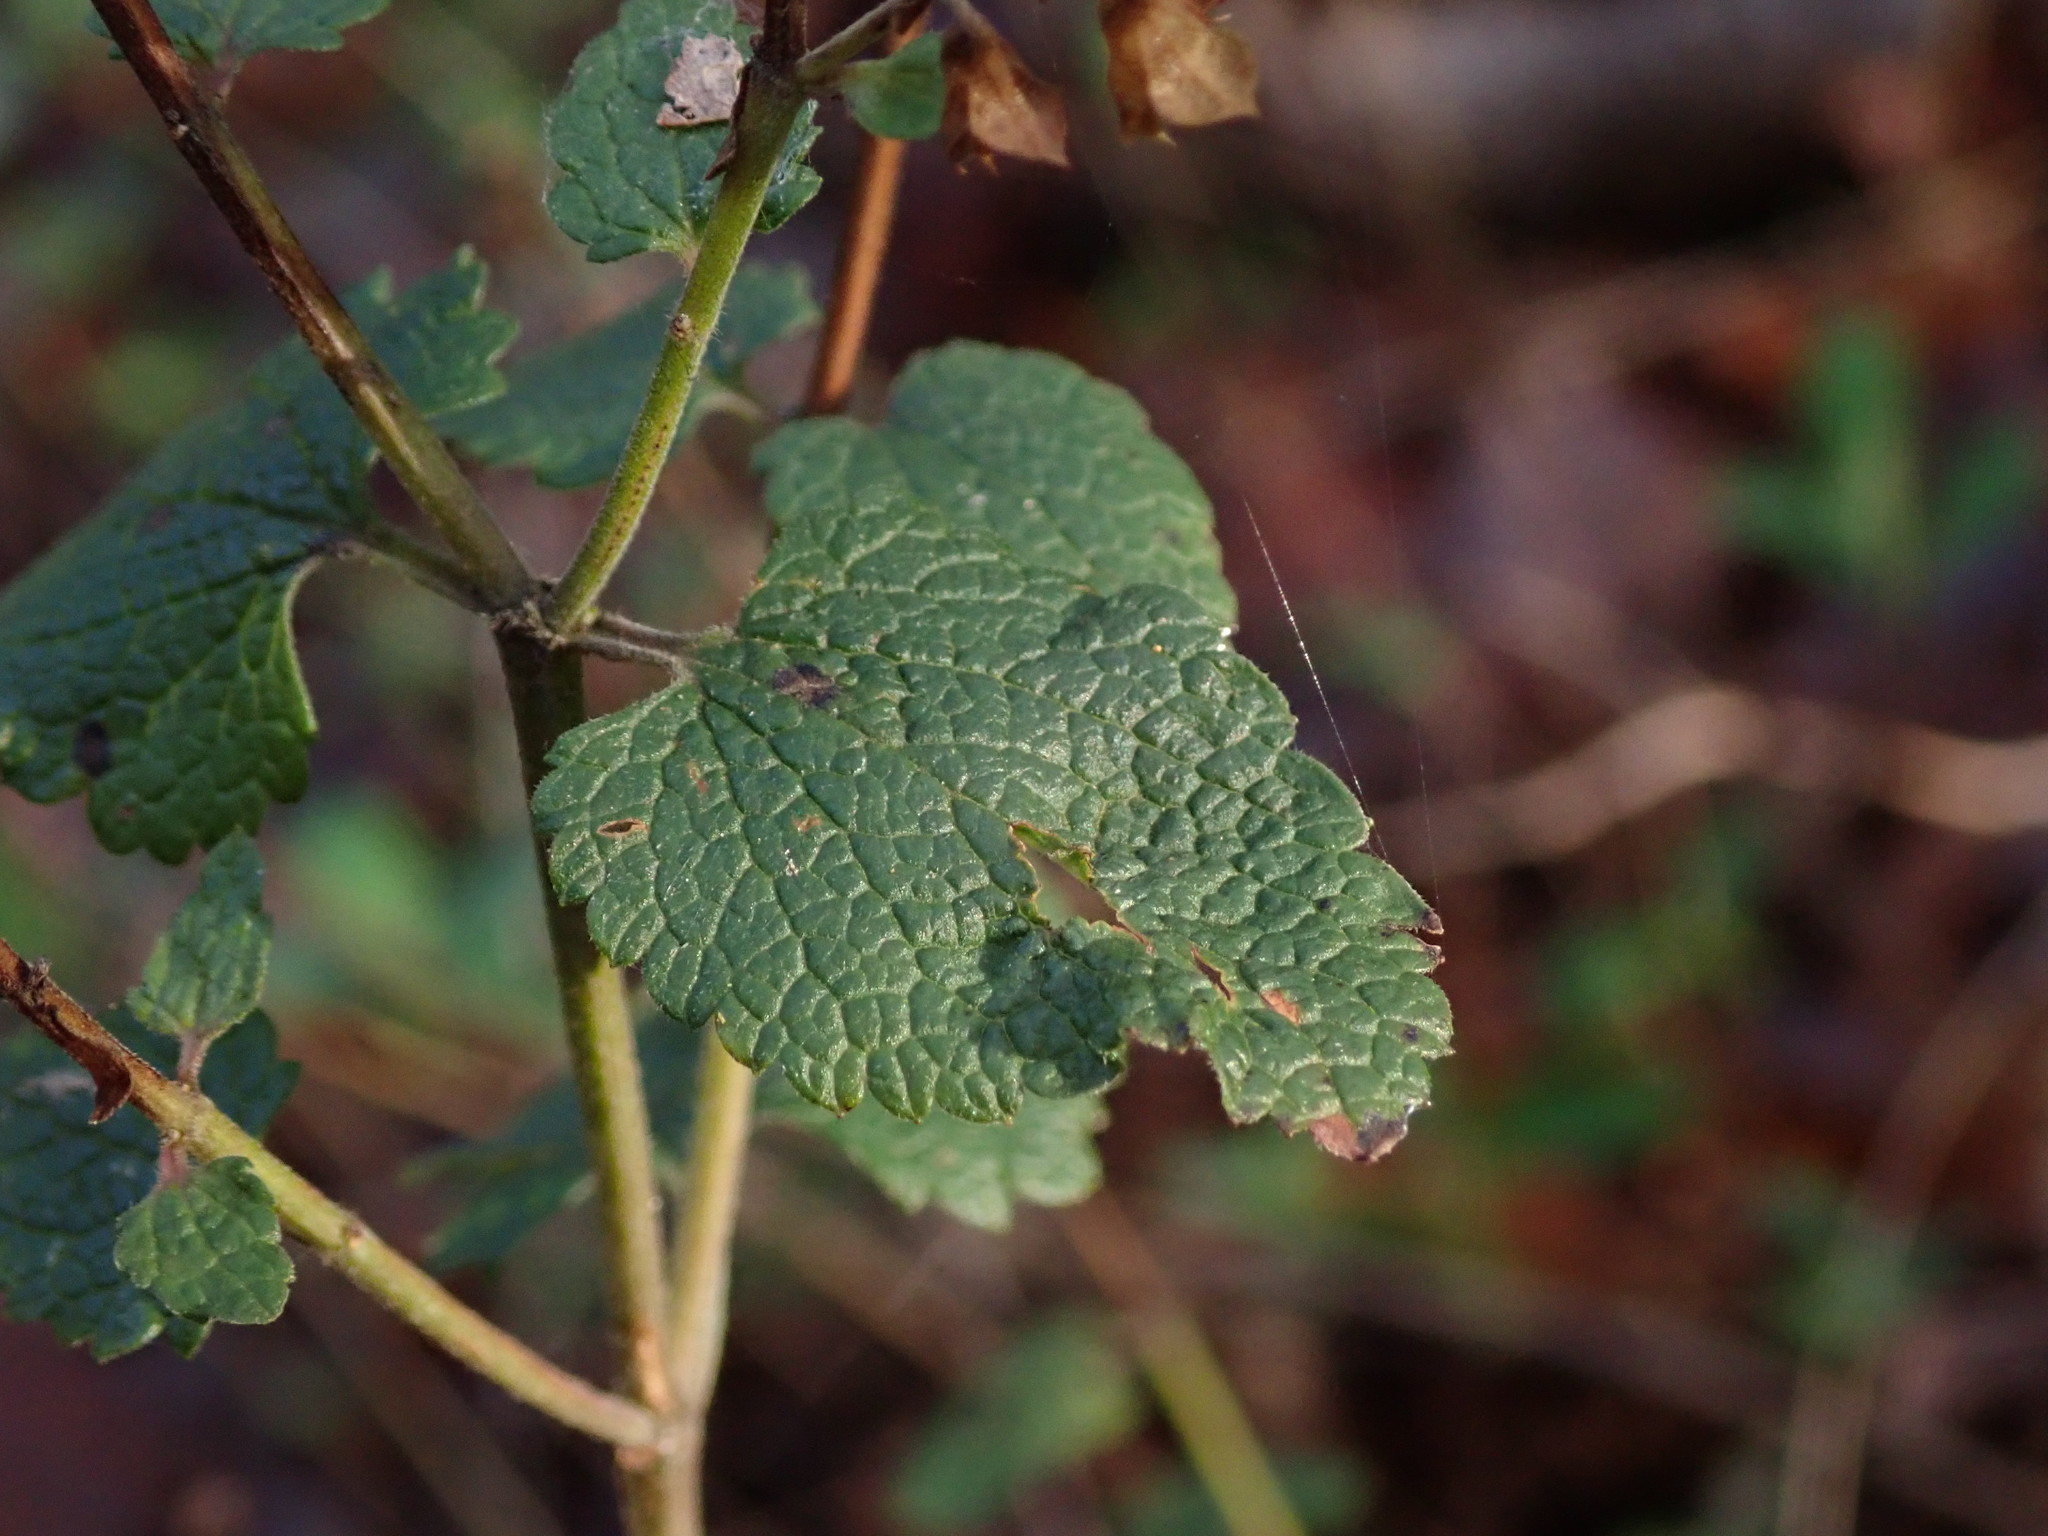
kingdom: Plantae
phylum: Tracheophyta
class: Magnoliopsida
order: Lamiales
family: Lamiaceae
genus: Teucrium
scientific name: Teucrium scorodonia
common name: Woodland germander
